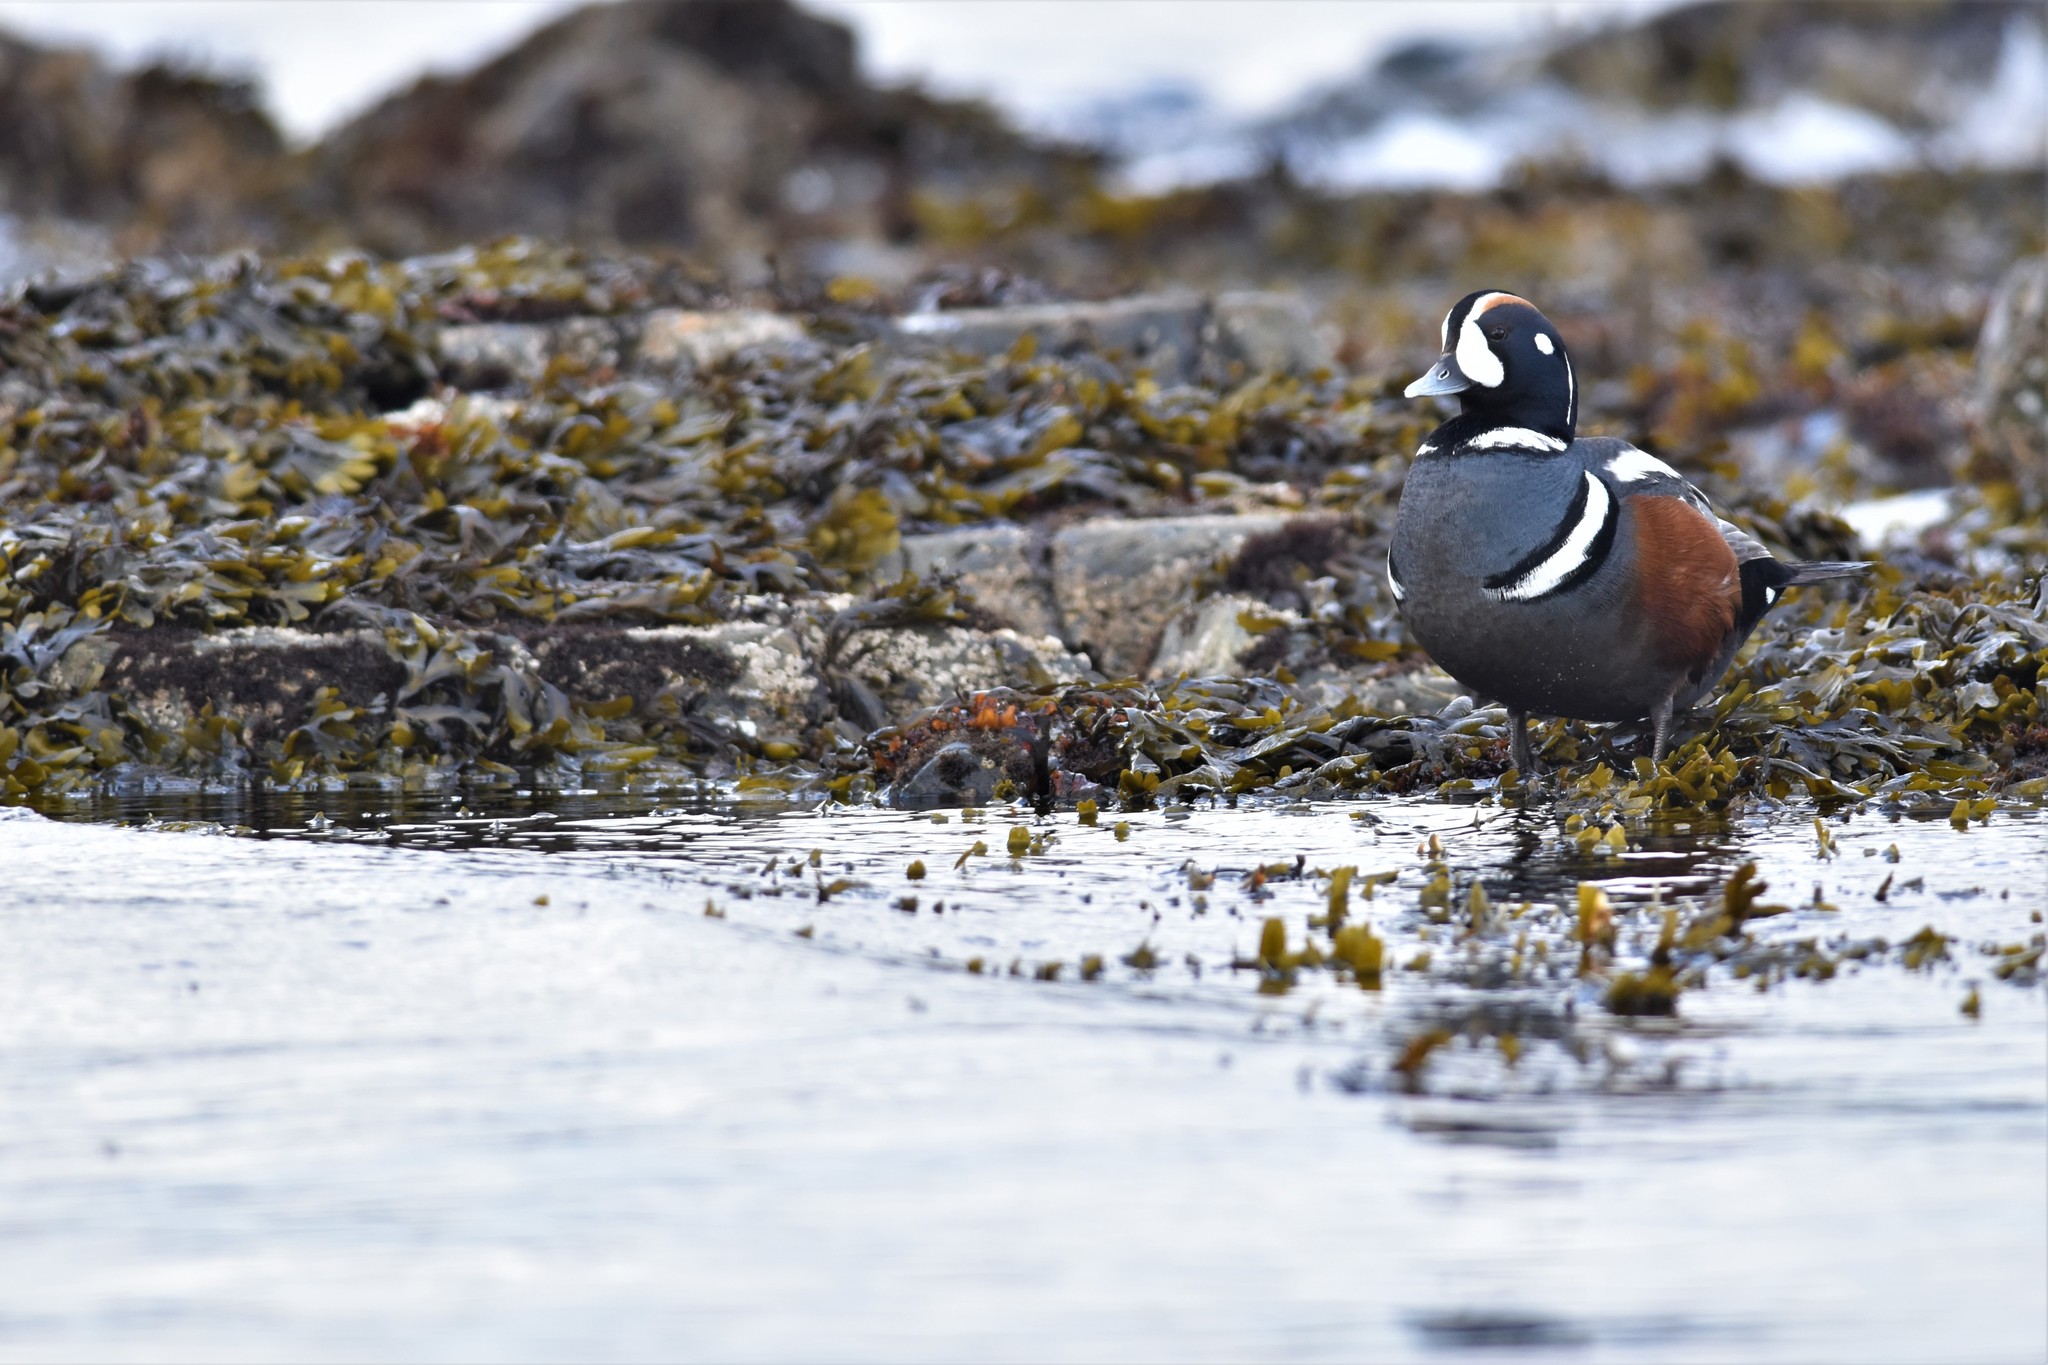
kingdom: Animalia
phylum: Chordata
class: Aves
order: Anseriformes
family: Anatidae
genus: Histrionicus
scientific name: Histrionicus histrionicus
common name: Harlequin duck
